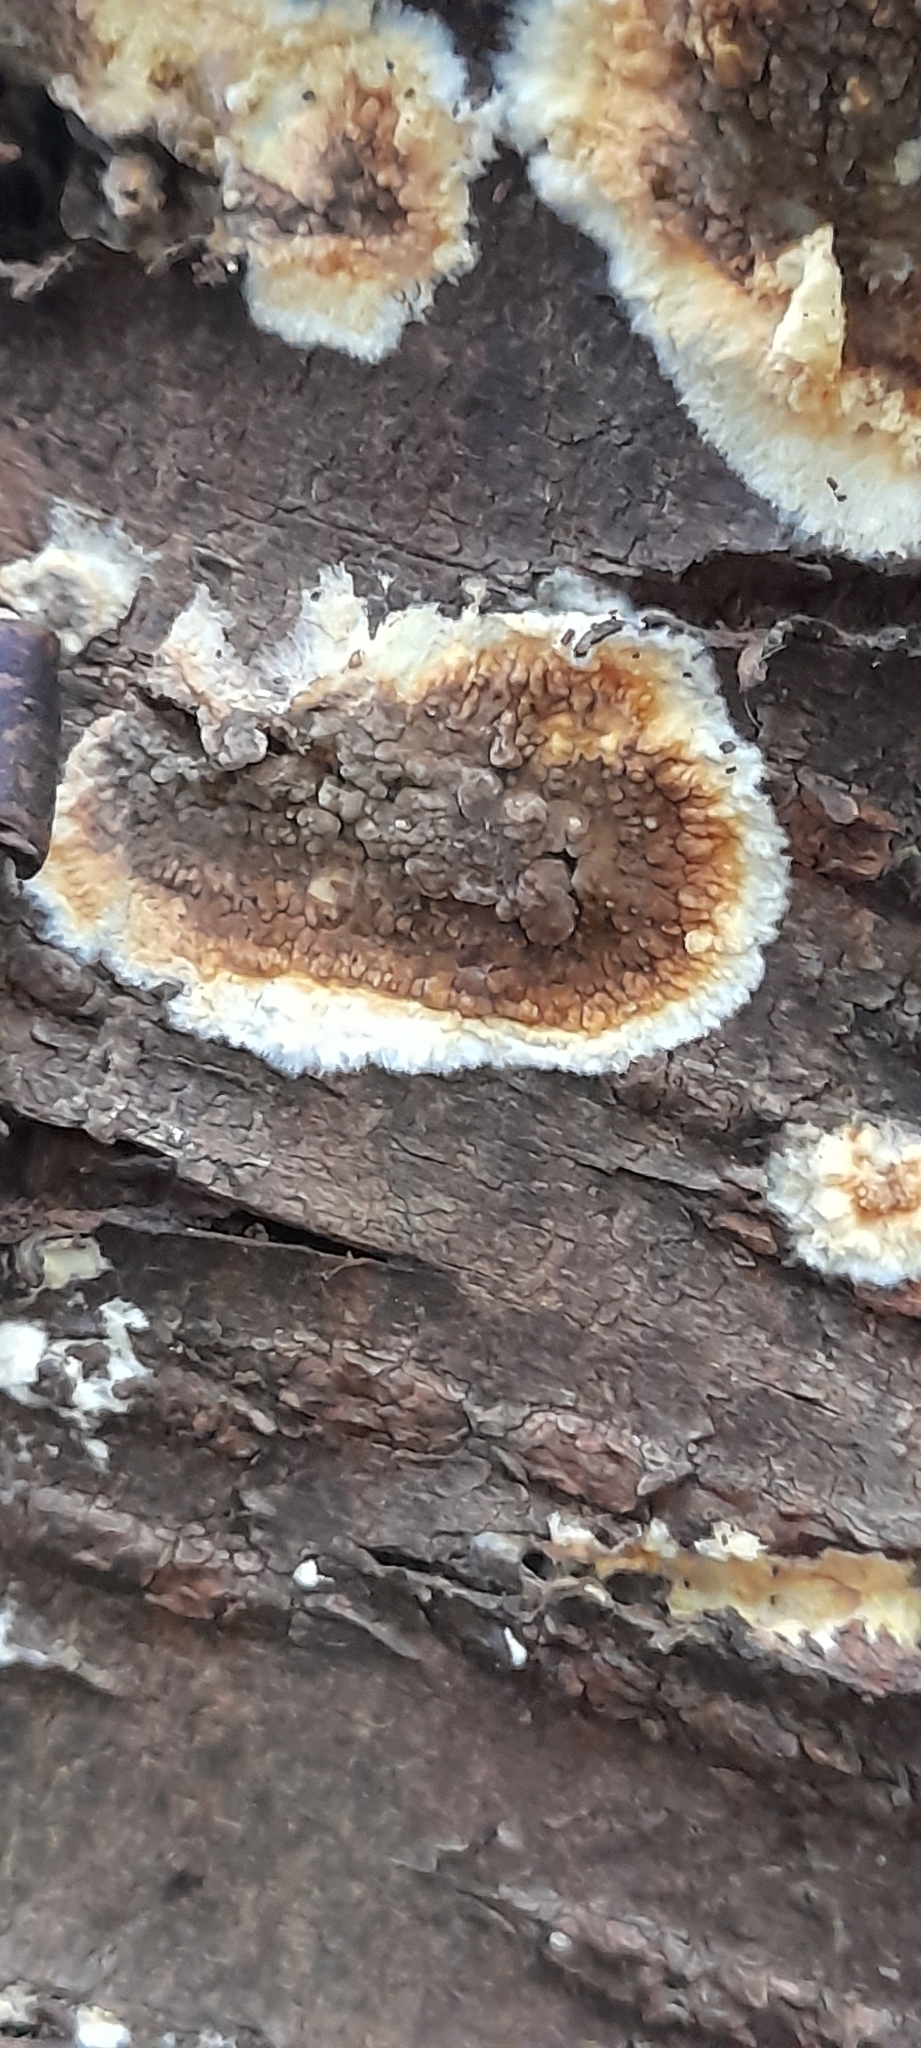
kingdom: Fungi
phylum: Basidiomycota
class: Agaricomycetes
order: Boletales
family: Coniophoraceae
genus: Coniophora
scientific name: Coniophora puteana
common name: Cellar fungus
